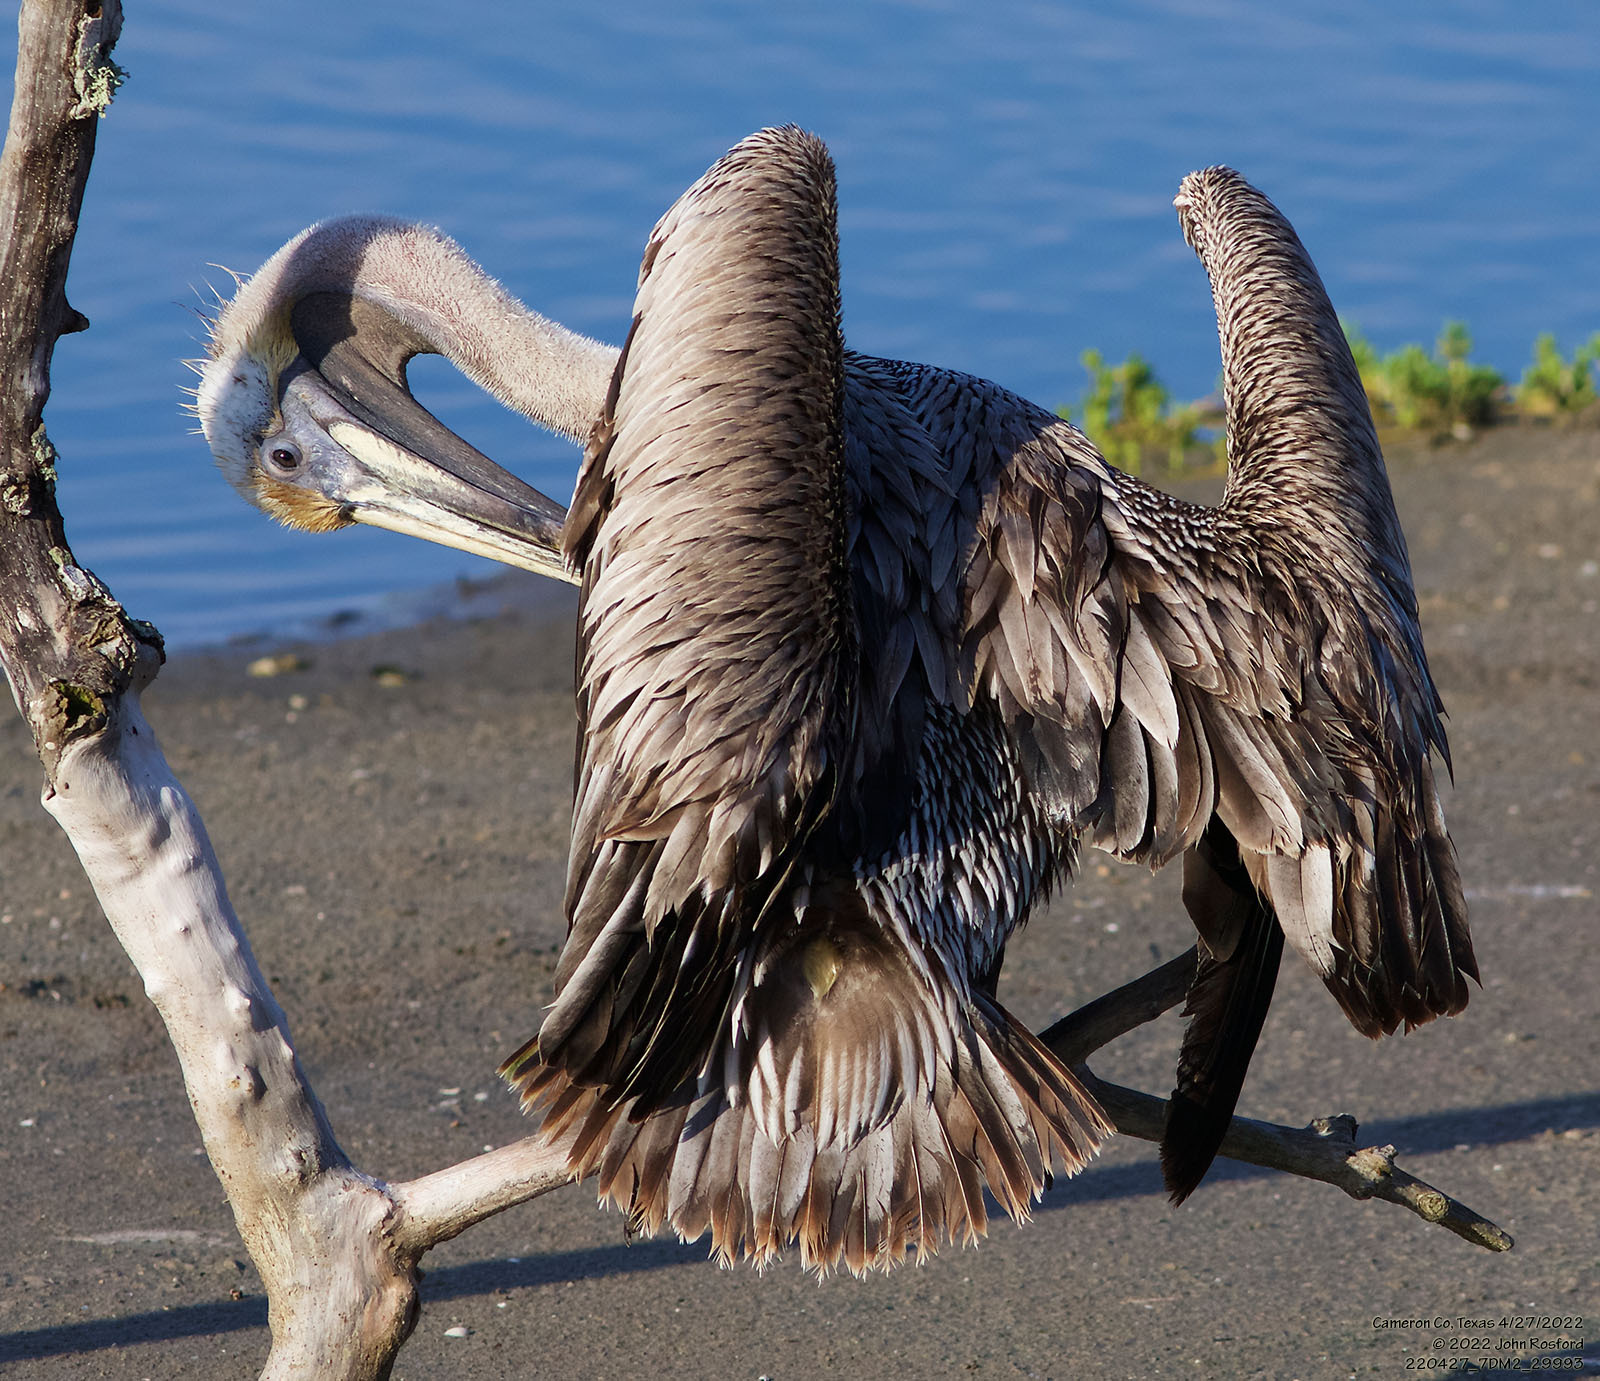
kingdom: Animalia
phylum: Chordata
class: Aves
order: Pelecaniformes
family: Pelecanidae
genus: Pelecanus
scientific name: Pelecanus occidentalis
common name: Brown pelican
